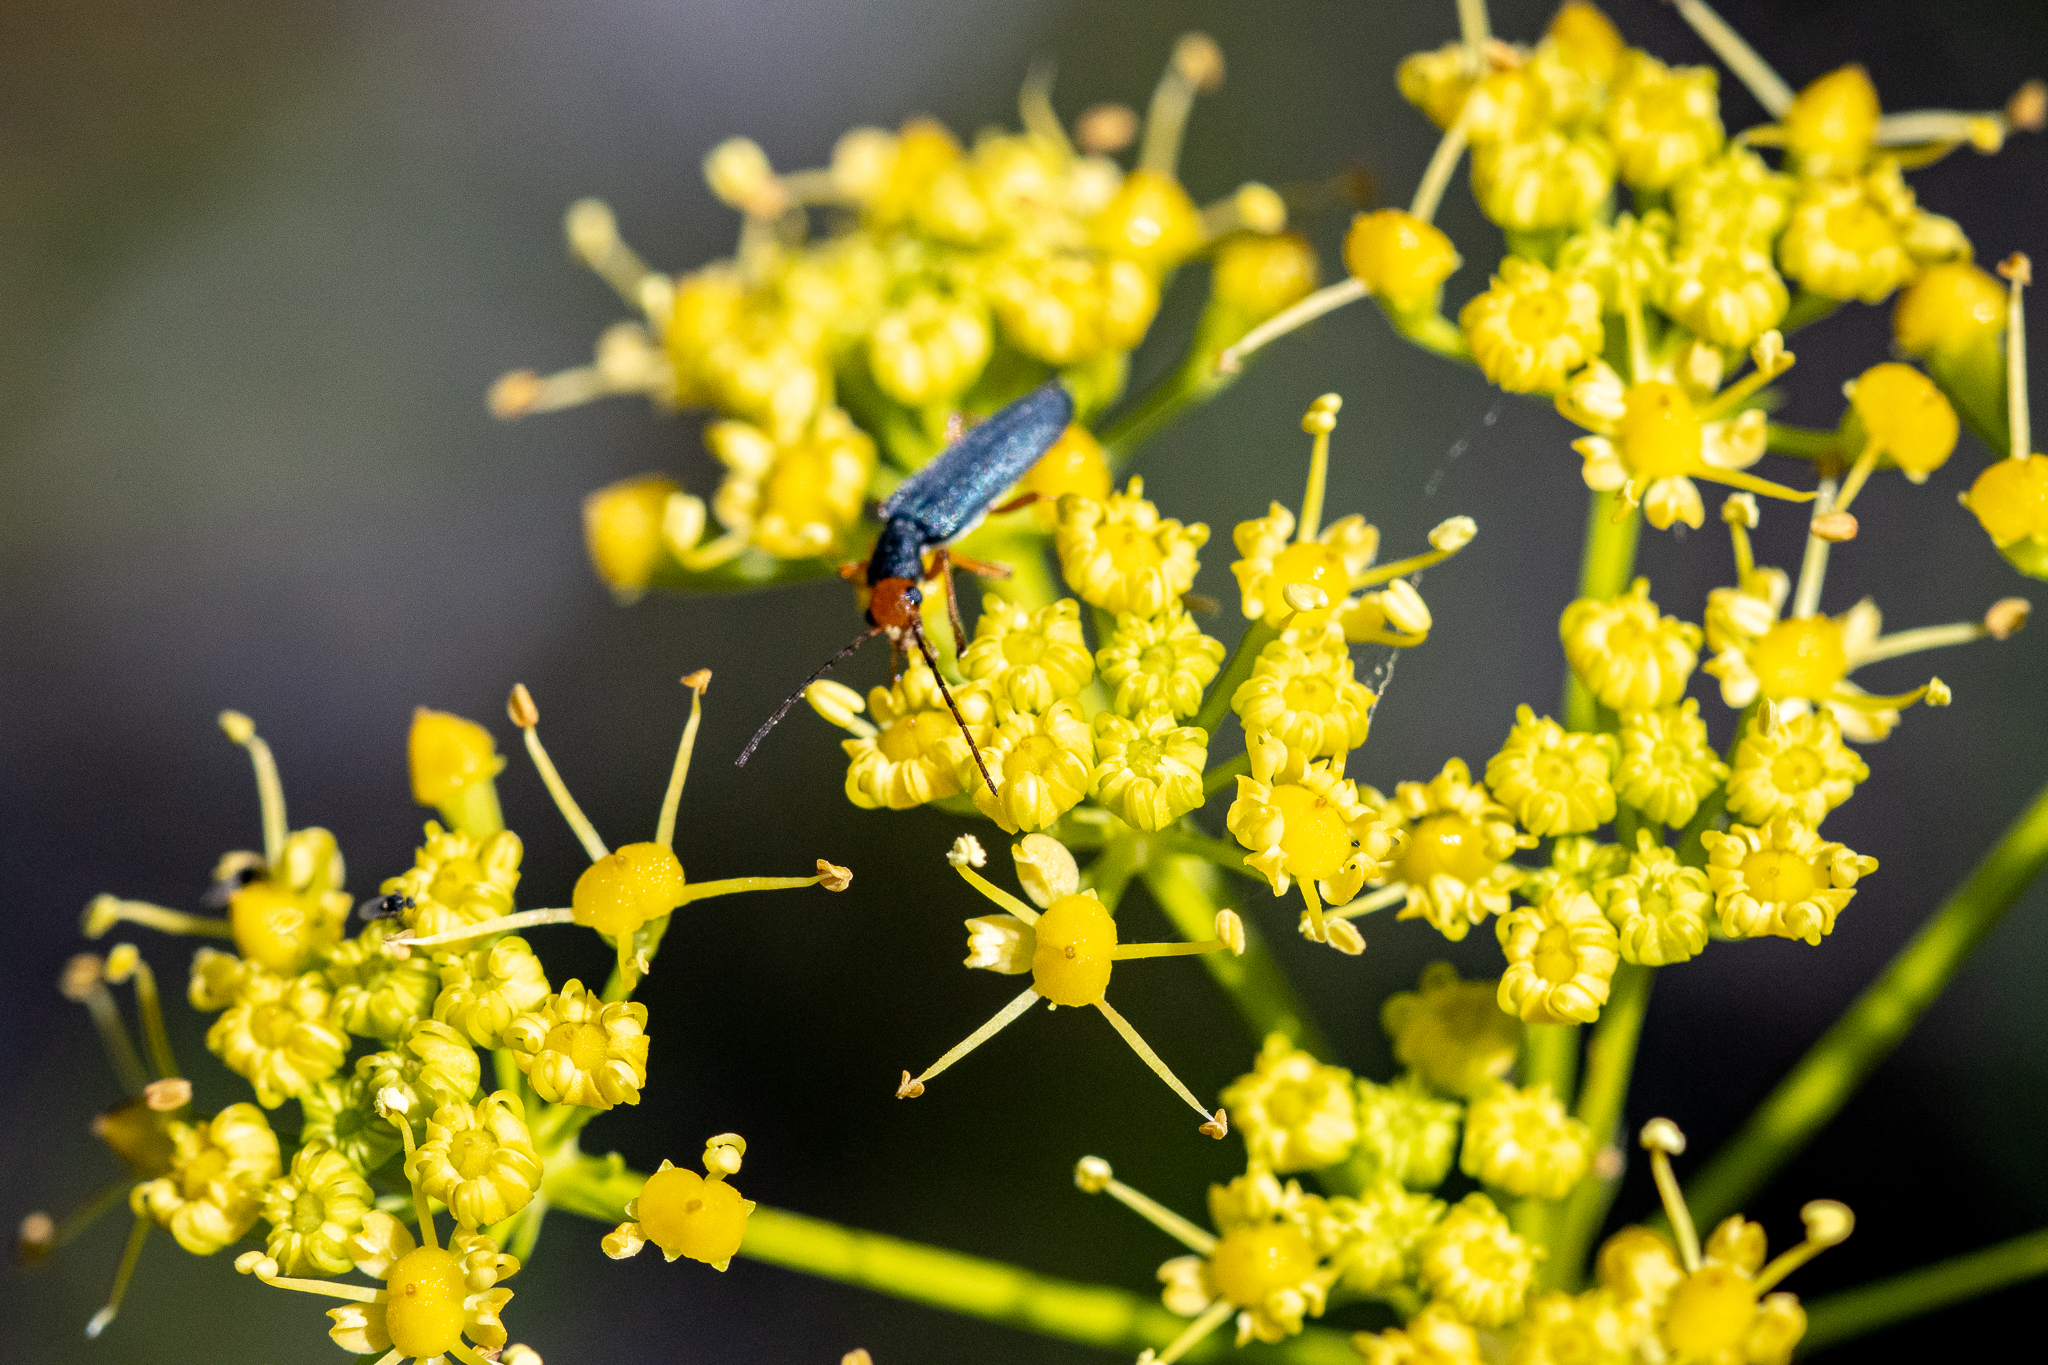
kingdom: Animalia
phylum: Arthropoda
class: Insecta
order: Coleoptera
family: Oedemeridae
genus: Melananthia
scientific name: Melananthia
